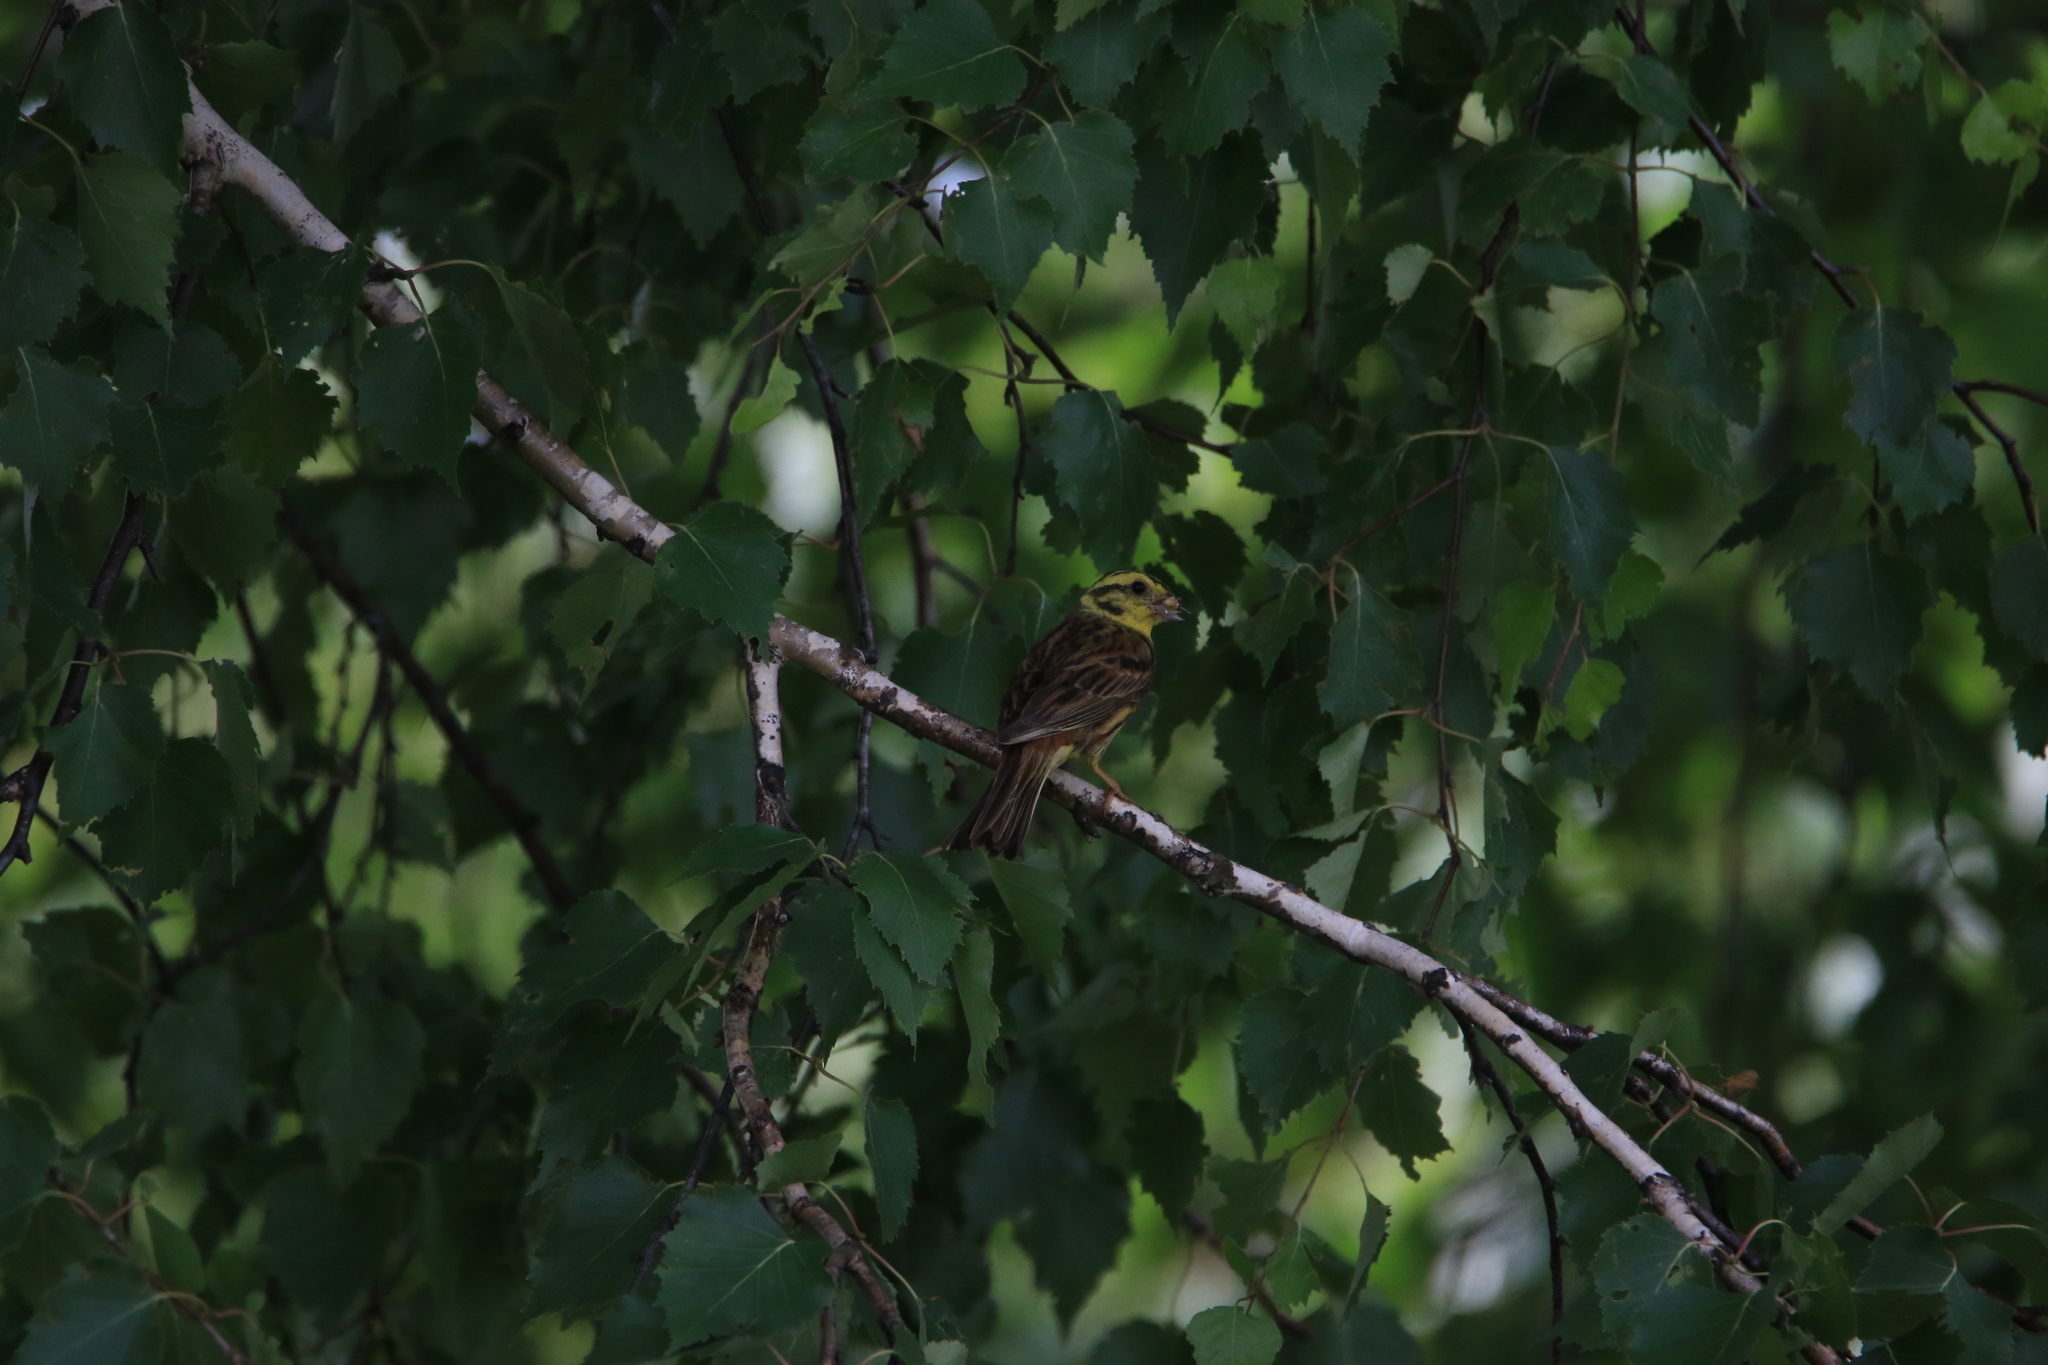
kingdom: Animalia
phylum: Chordata
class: Aves
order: Passeriformes
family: Emberizidae
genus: Emberiza
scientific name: Emberiza citrinella
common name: Yellowhammer
